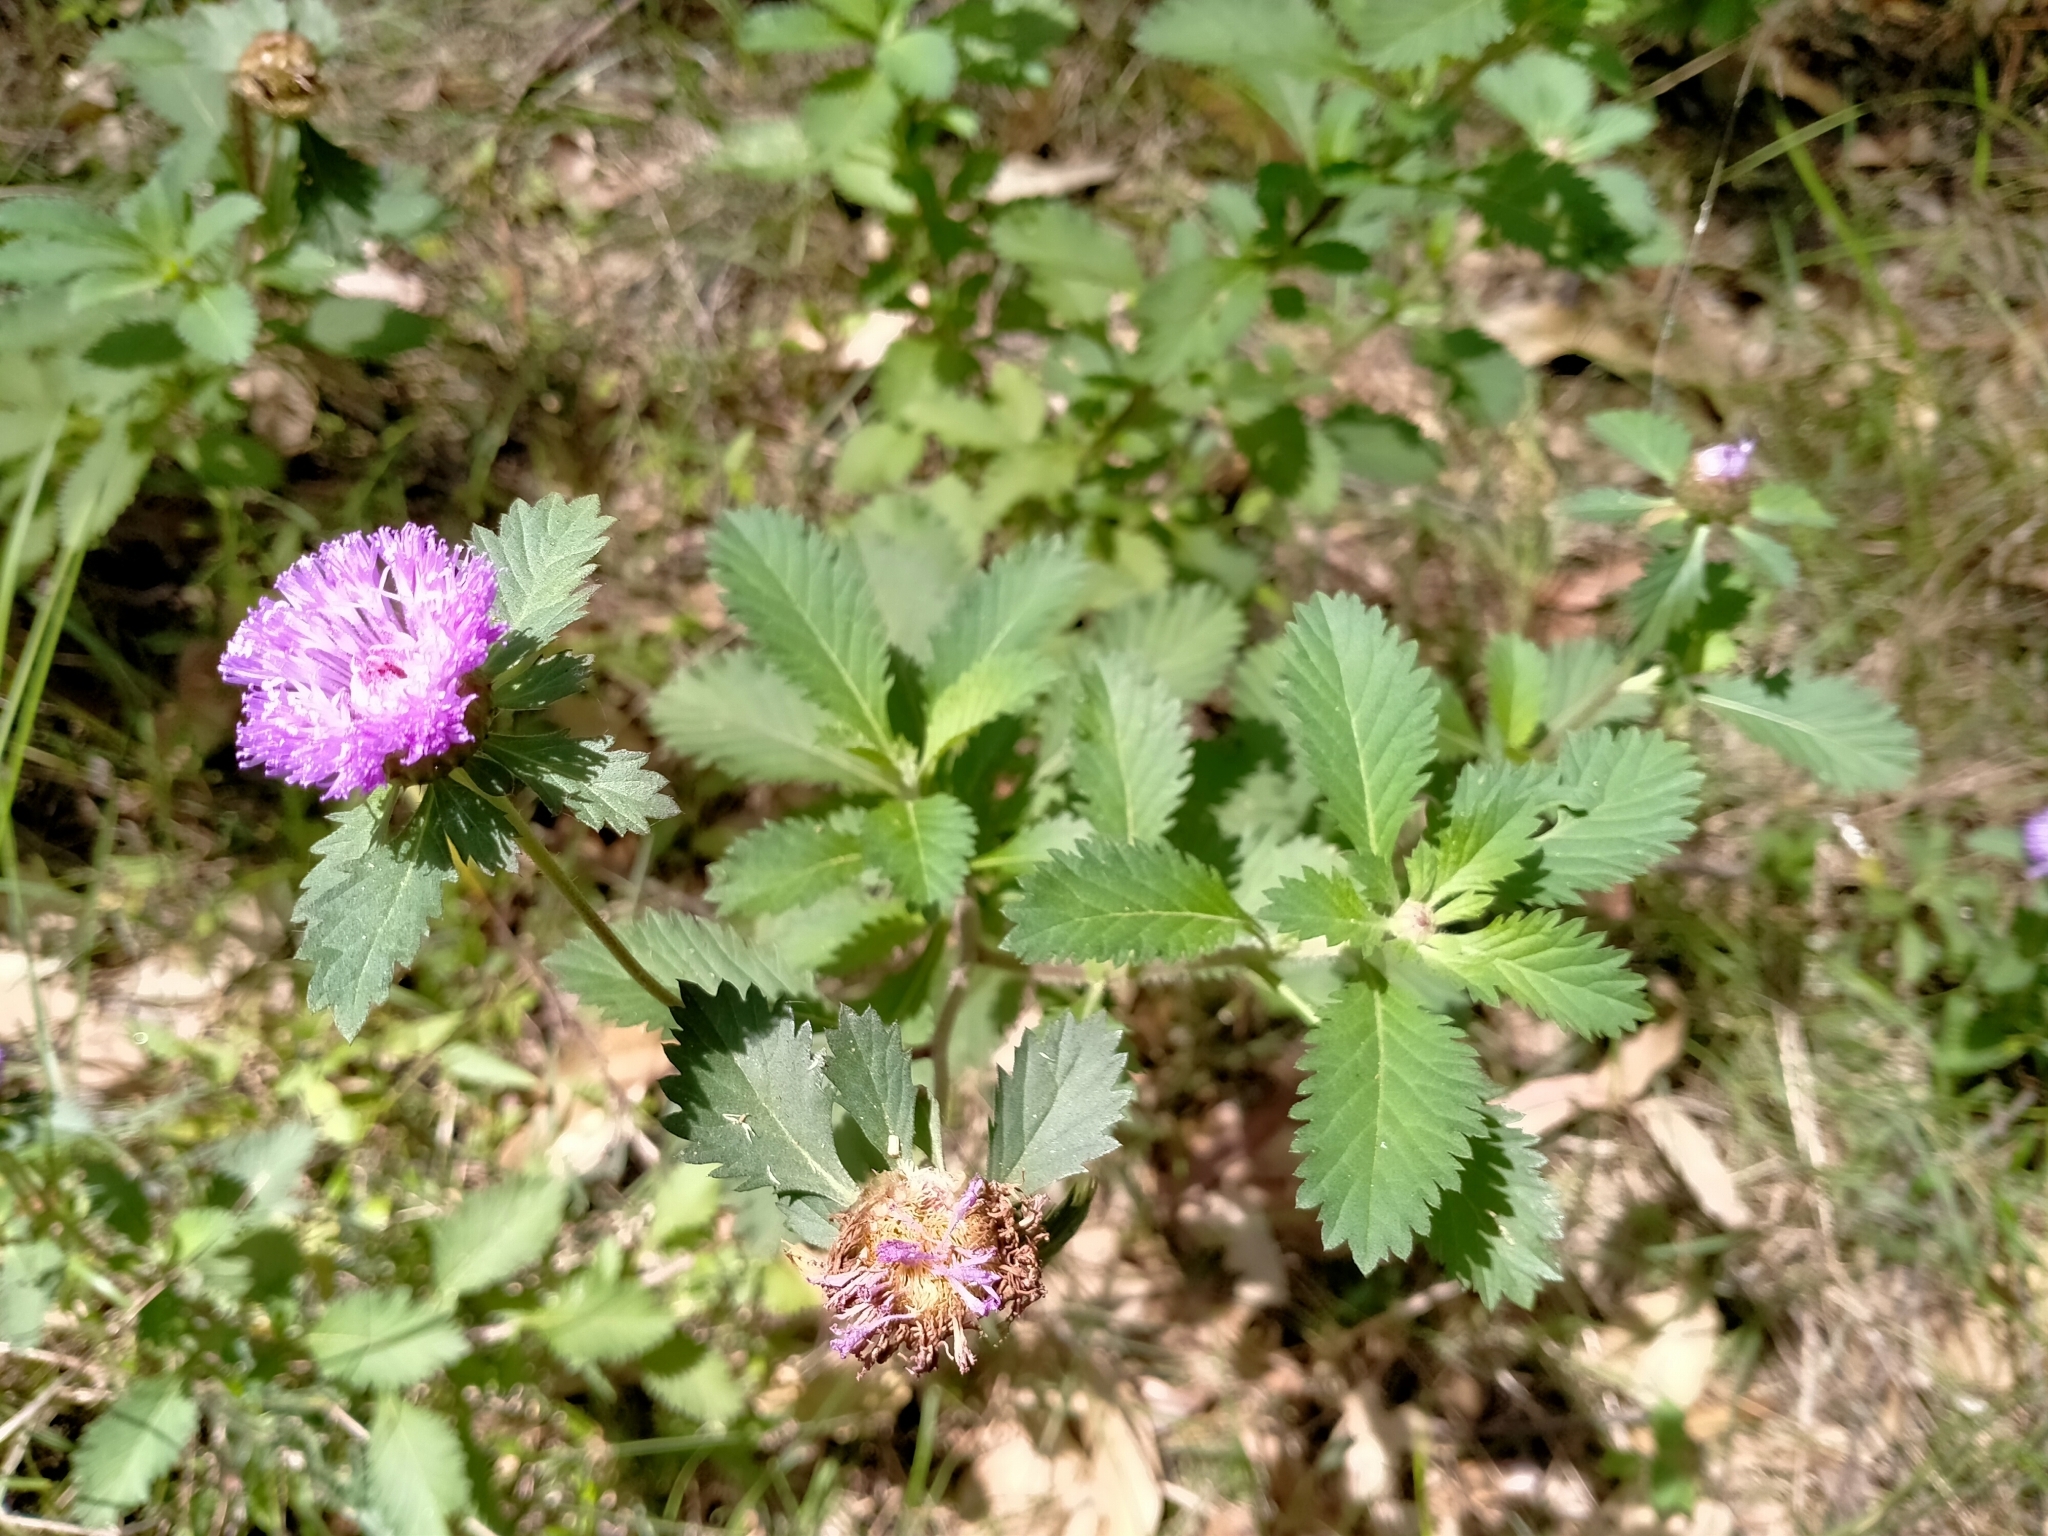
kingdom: Plantae
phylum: Tracheophyta
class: Magnoliopsida
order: Asterales
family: Asteraceae
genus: Centratherum
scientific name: Centratherum punctatum
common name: Larkdaisy
